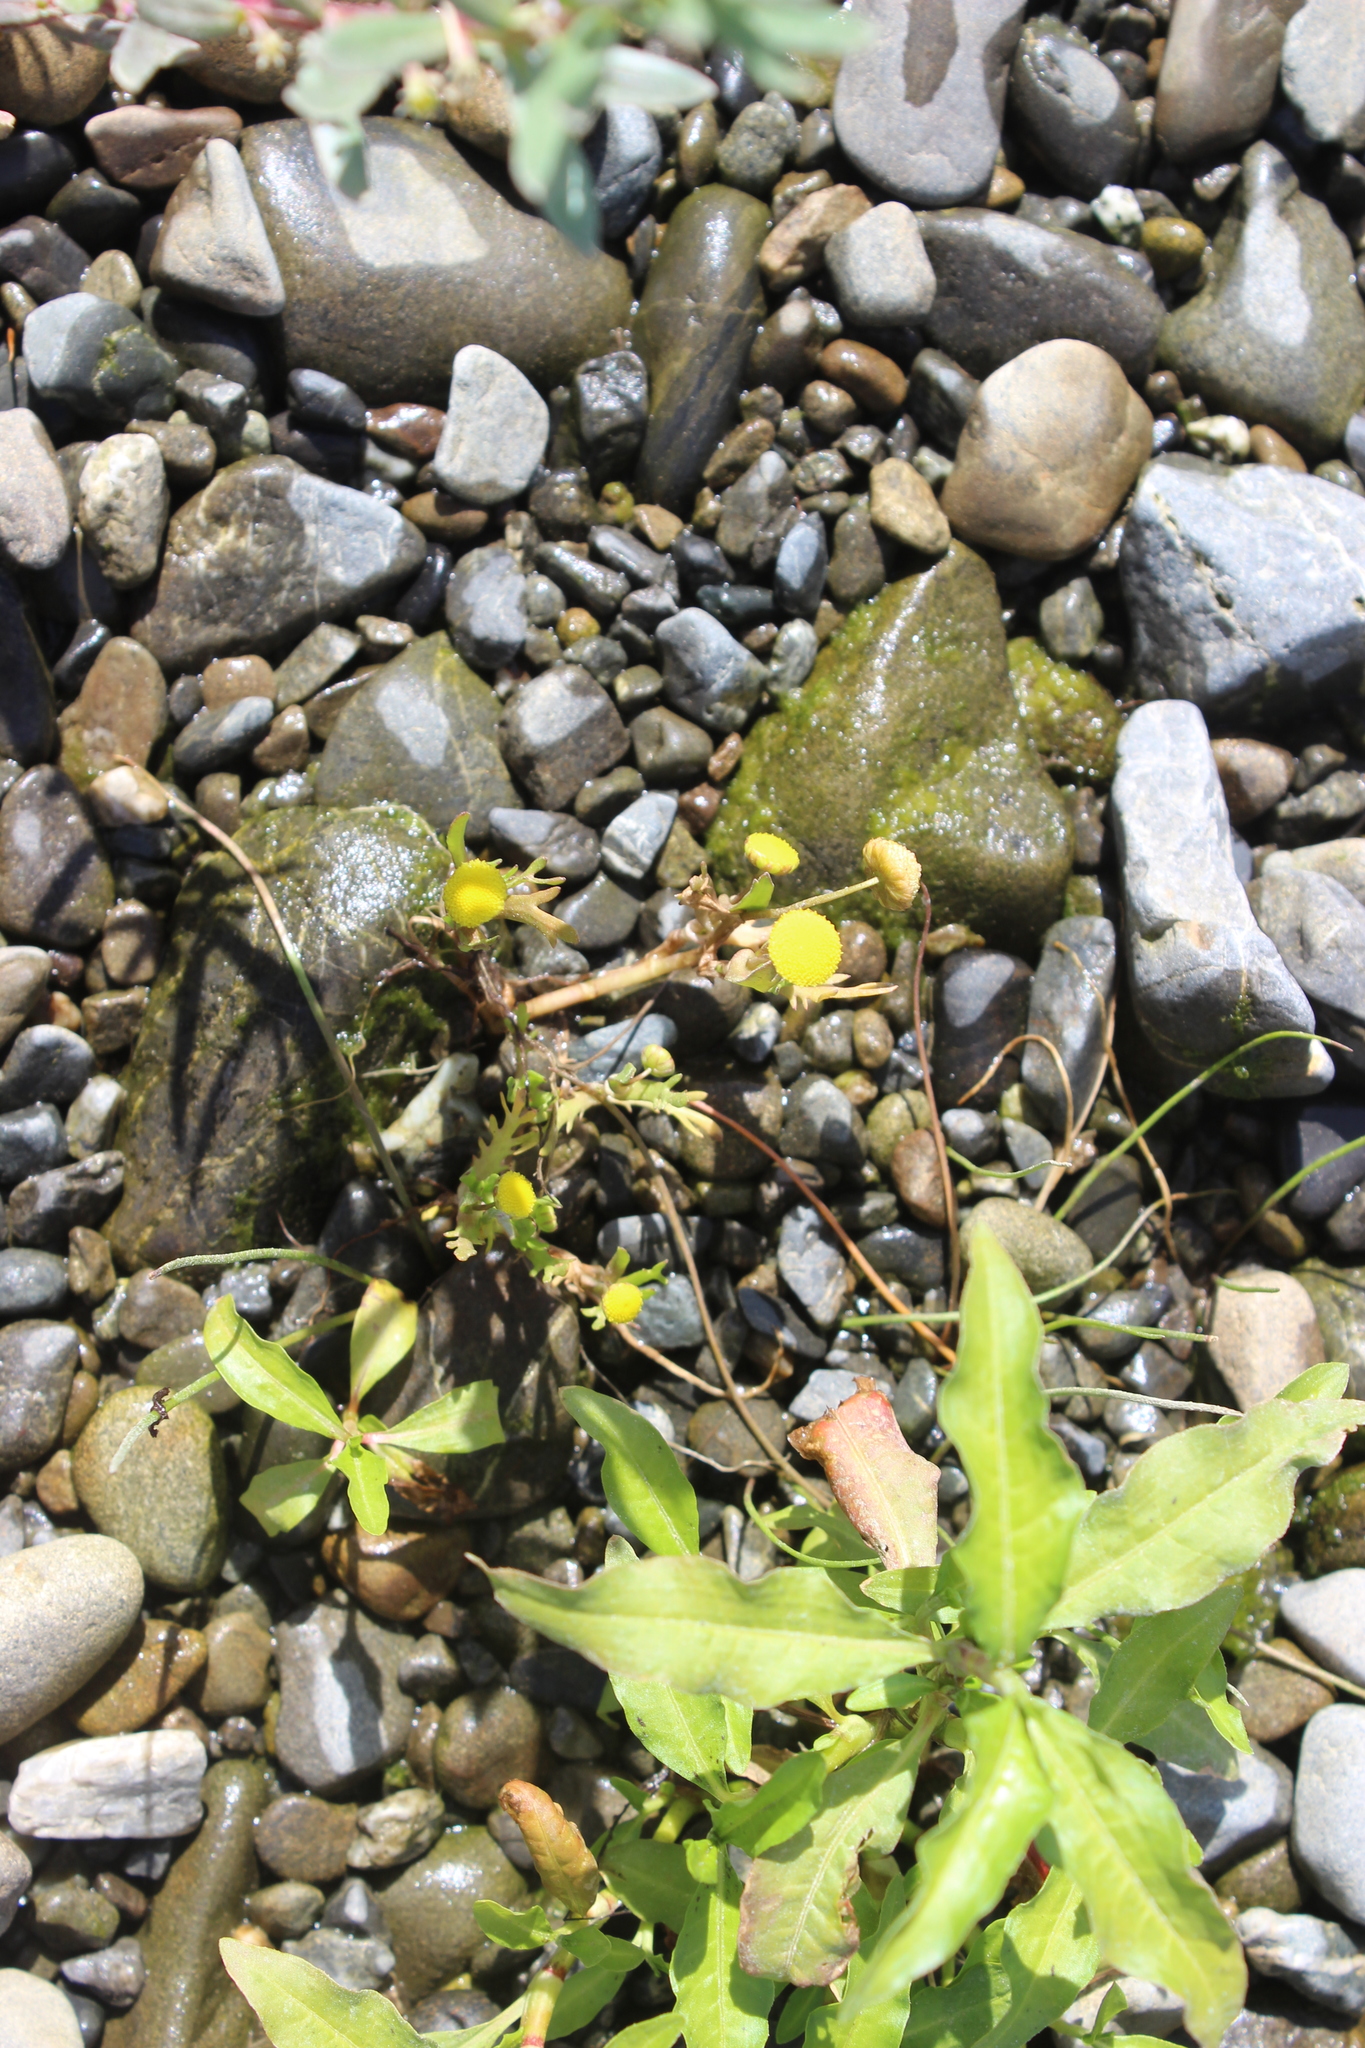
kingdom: Plantae
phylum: Tracheophyta
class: Magnoliopsida
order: Asterales
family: Asteraceae
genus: Cotula
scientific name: Cotula coronopifolia
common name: Buttonweed
